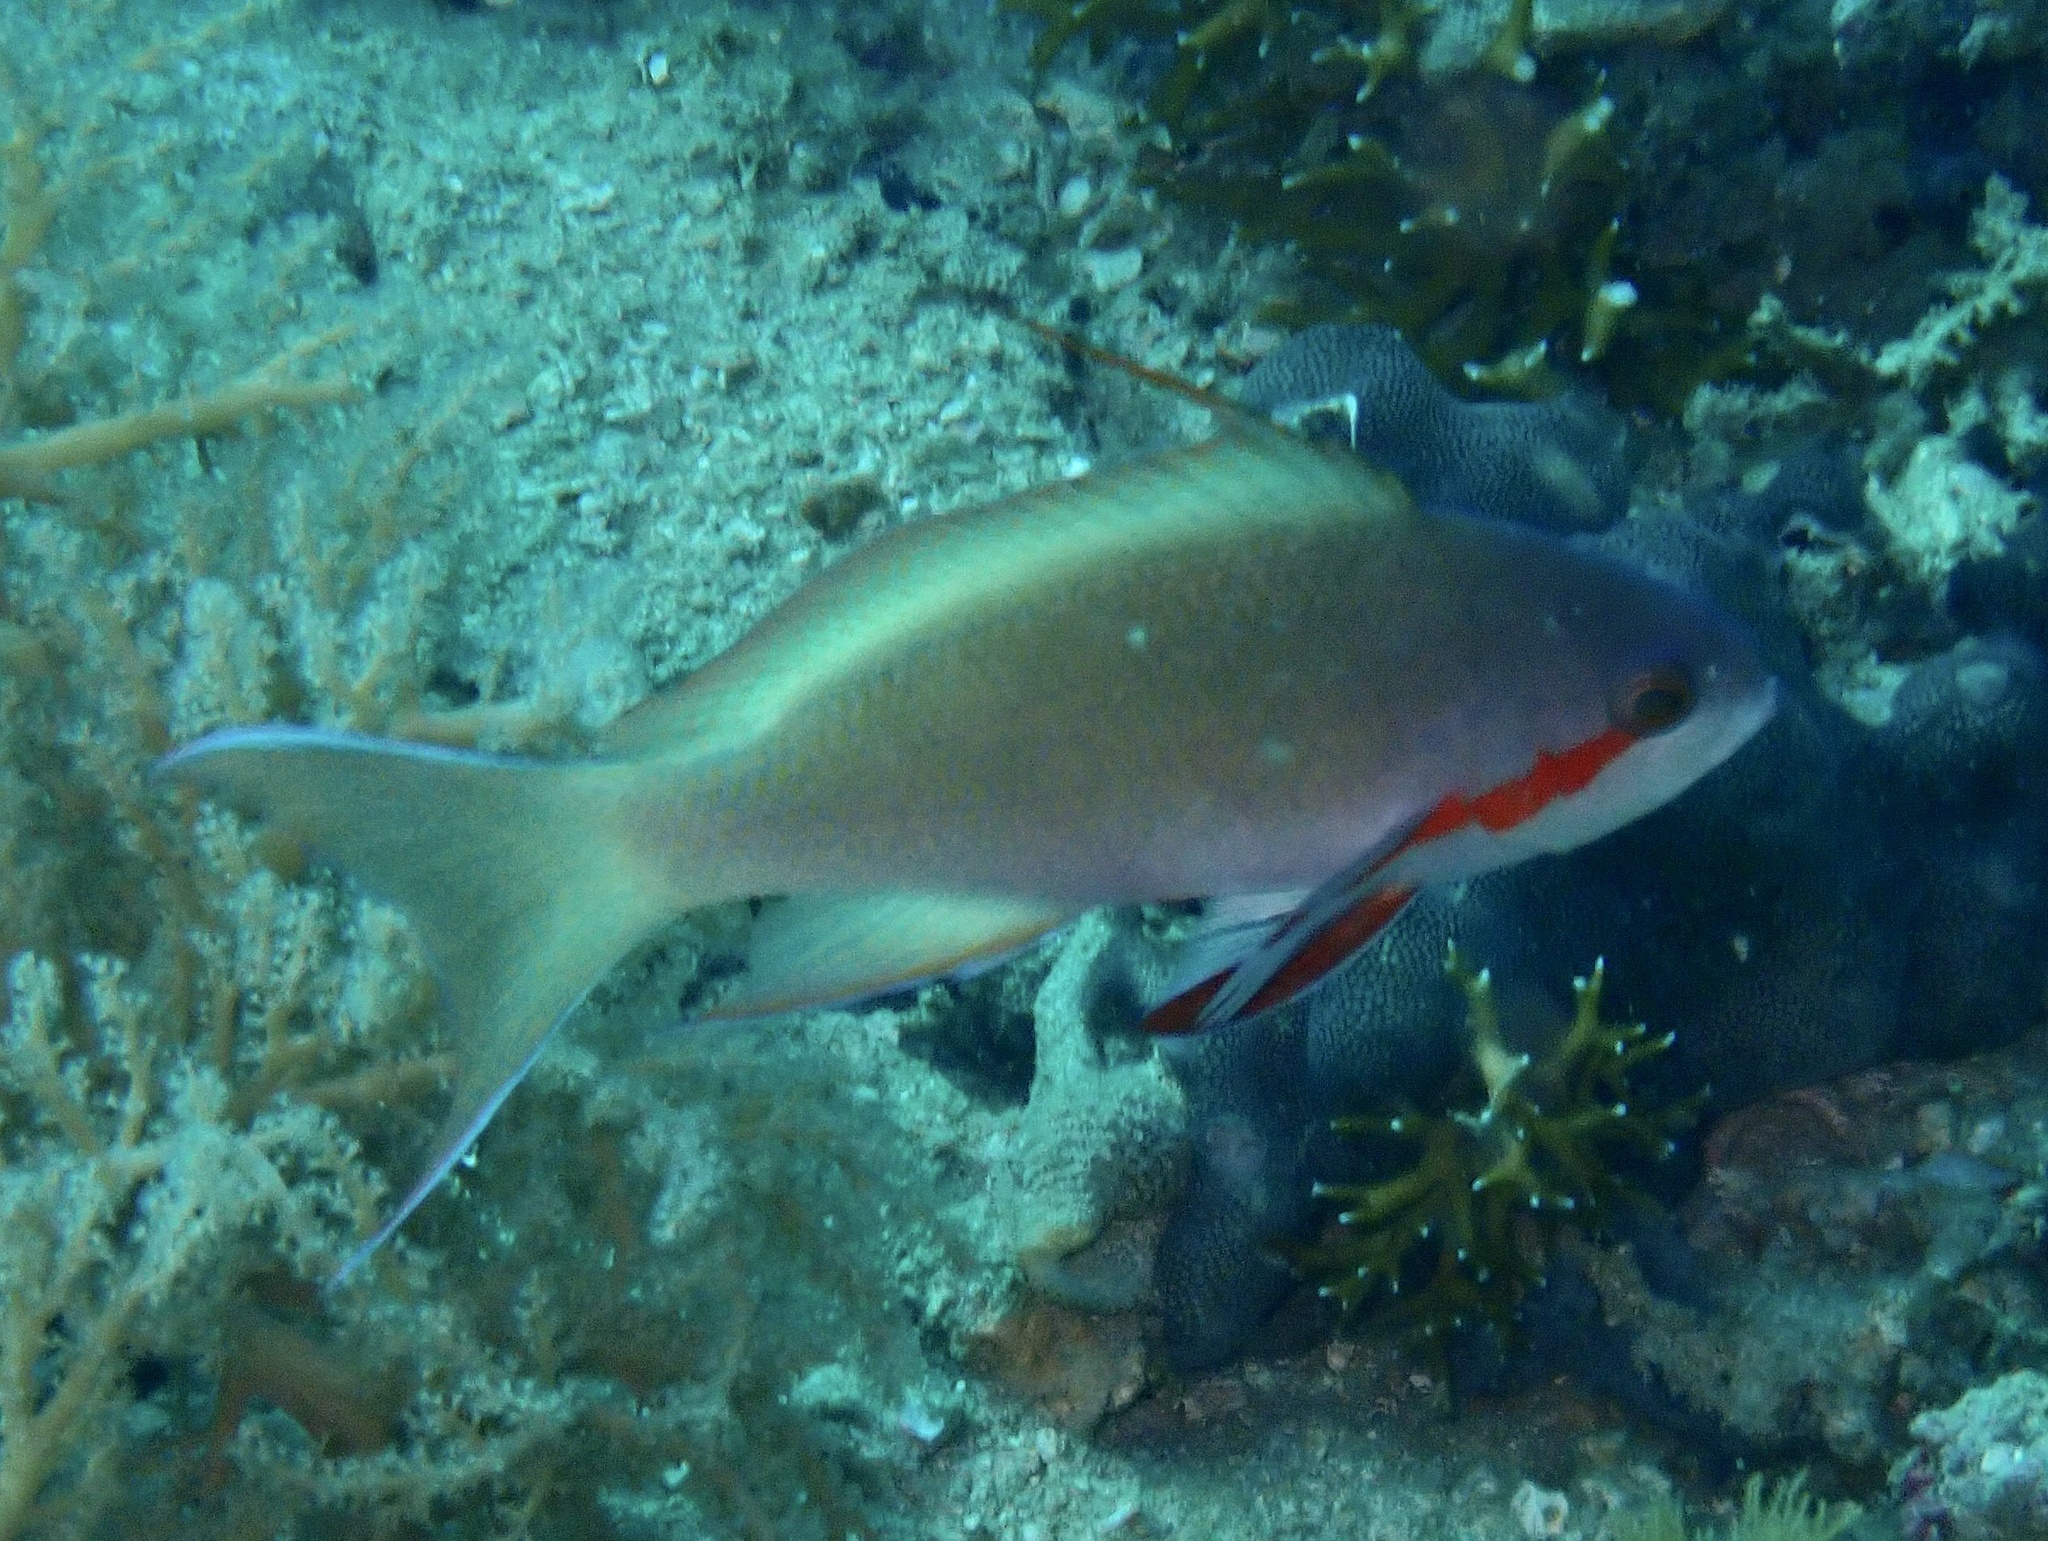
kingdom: Animalia
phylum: Chordata
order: Perciformes
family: Serranidae
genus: Pseudanthias
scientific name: Pseudanthias huchtii
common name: Pacific basslet
